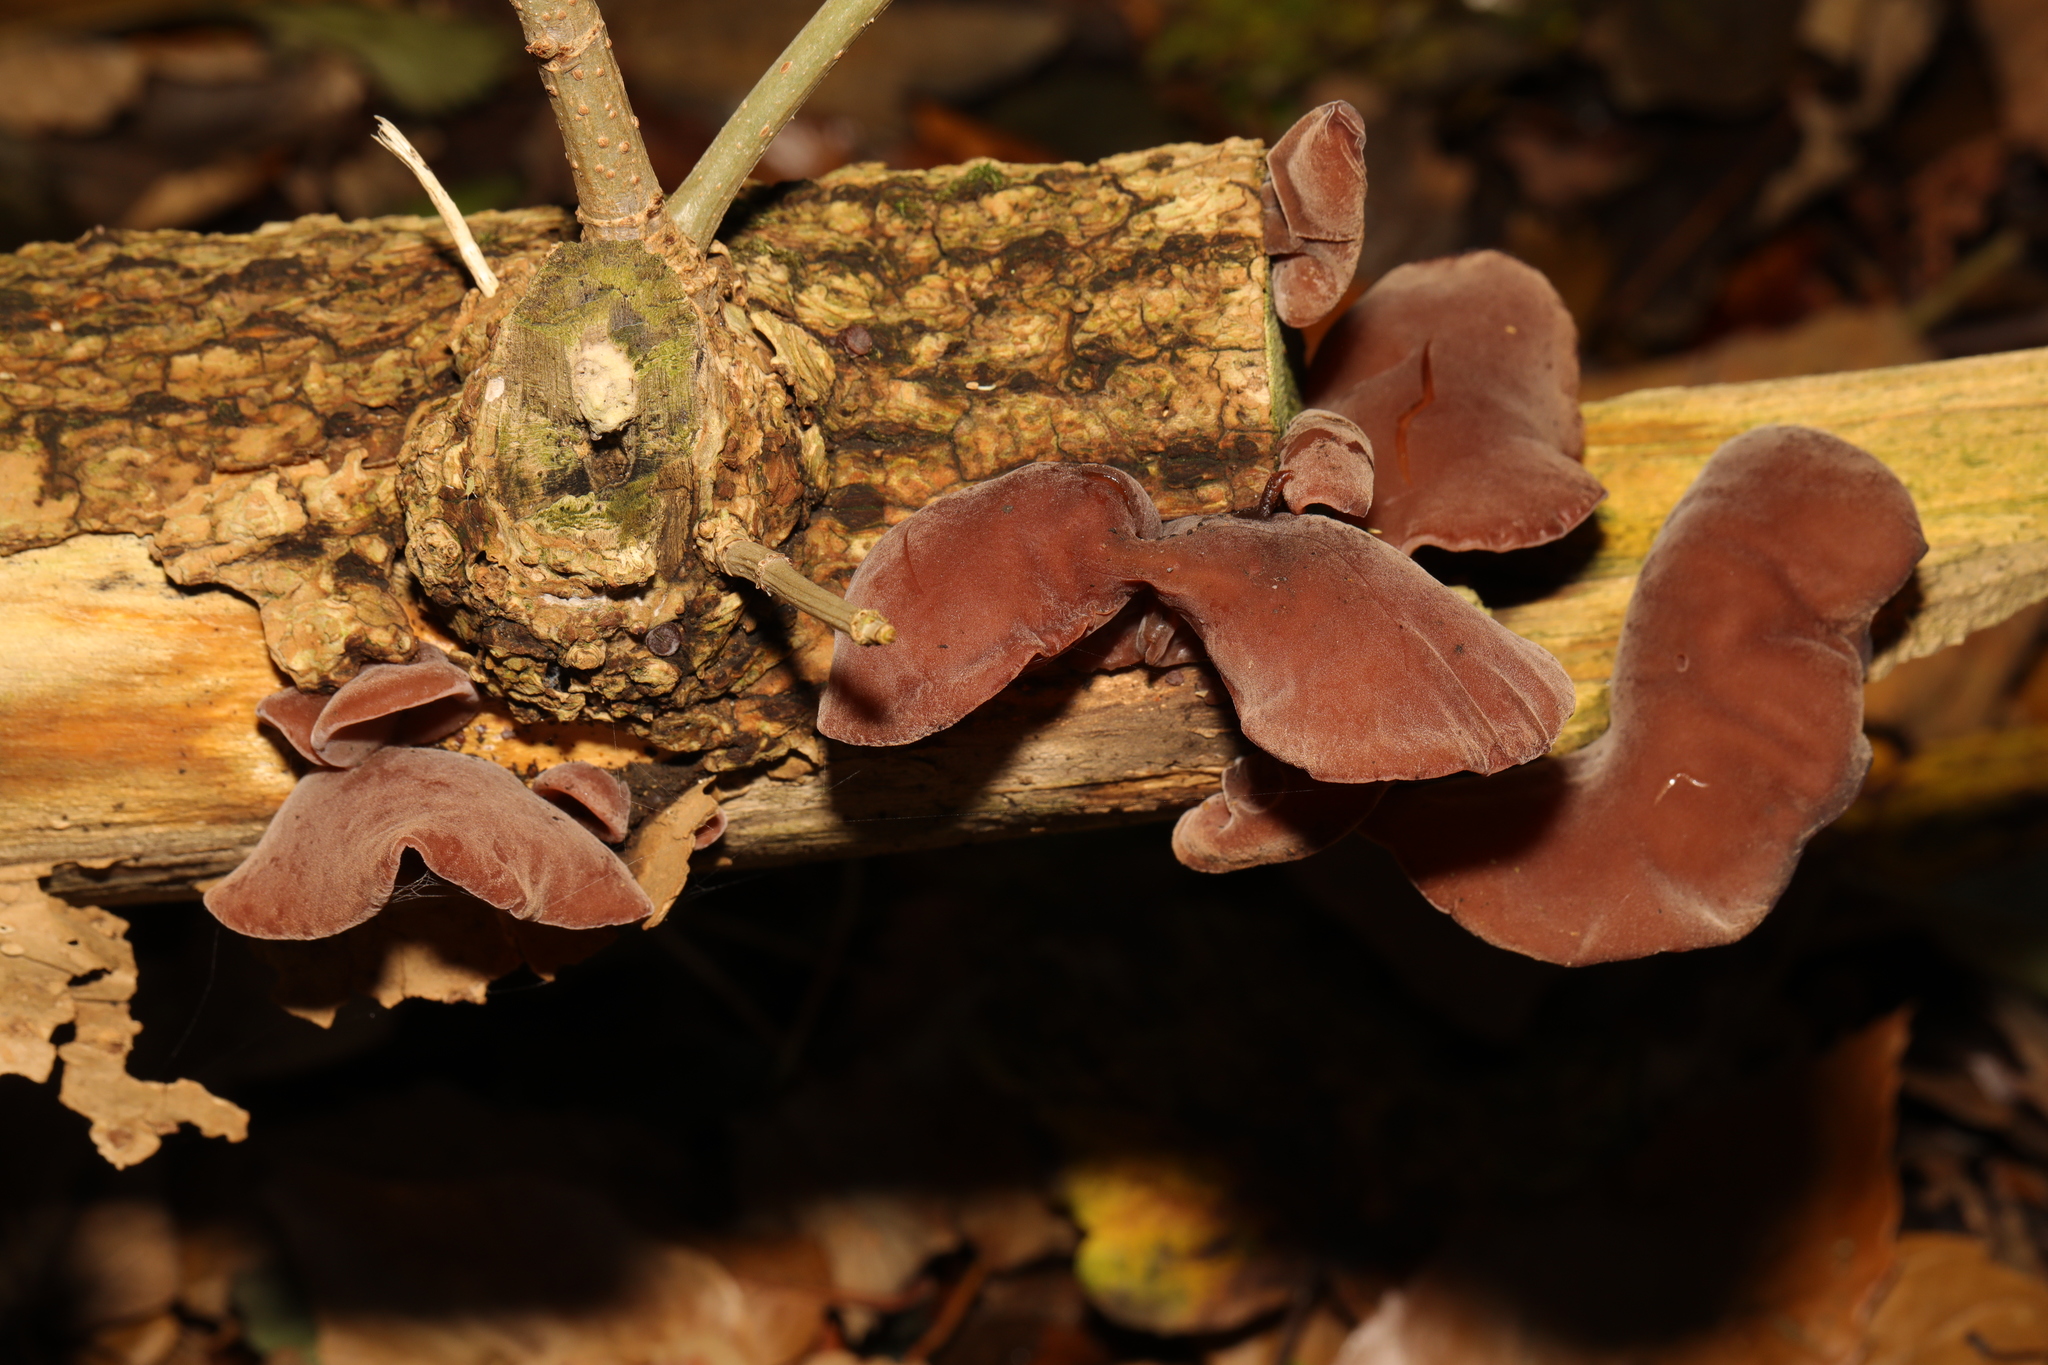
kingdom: Fungi
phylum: Basidiomycota
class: Agaricomycetes
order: Auriculariales
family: Auriculariaceae
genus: Auricularia
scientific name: Auricularia auricula-judae
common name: Jelly ear
